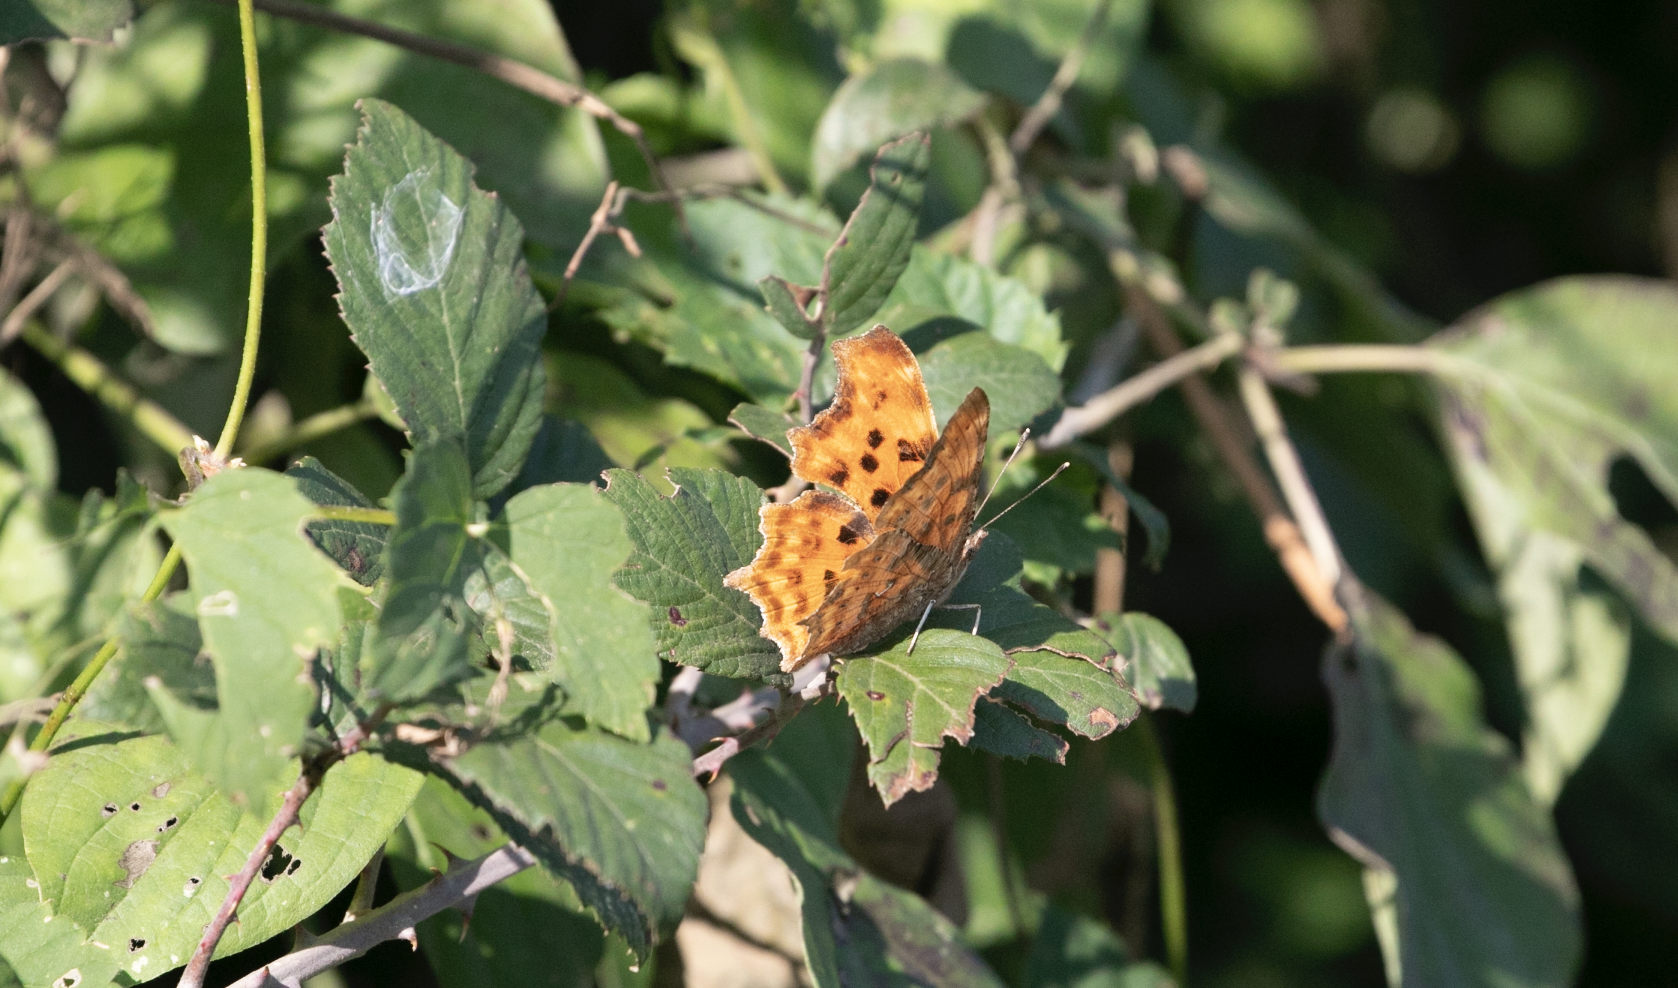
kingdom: Animalia
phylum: Arthropoda
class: Insecta
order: Lepidoptera
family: Nymphalidae
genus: Polygonia
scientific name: Polygonia c-album
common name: Comma
